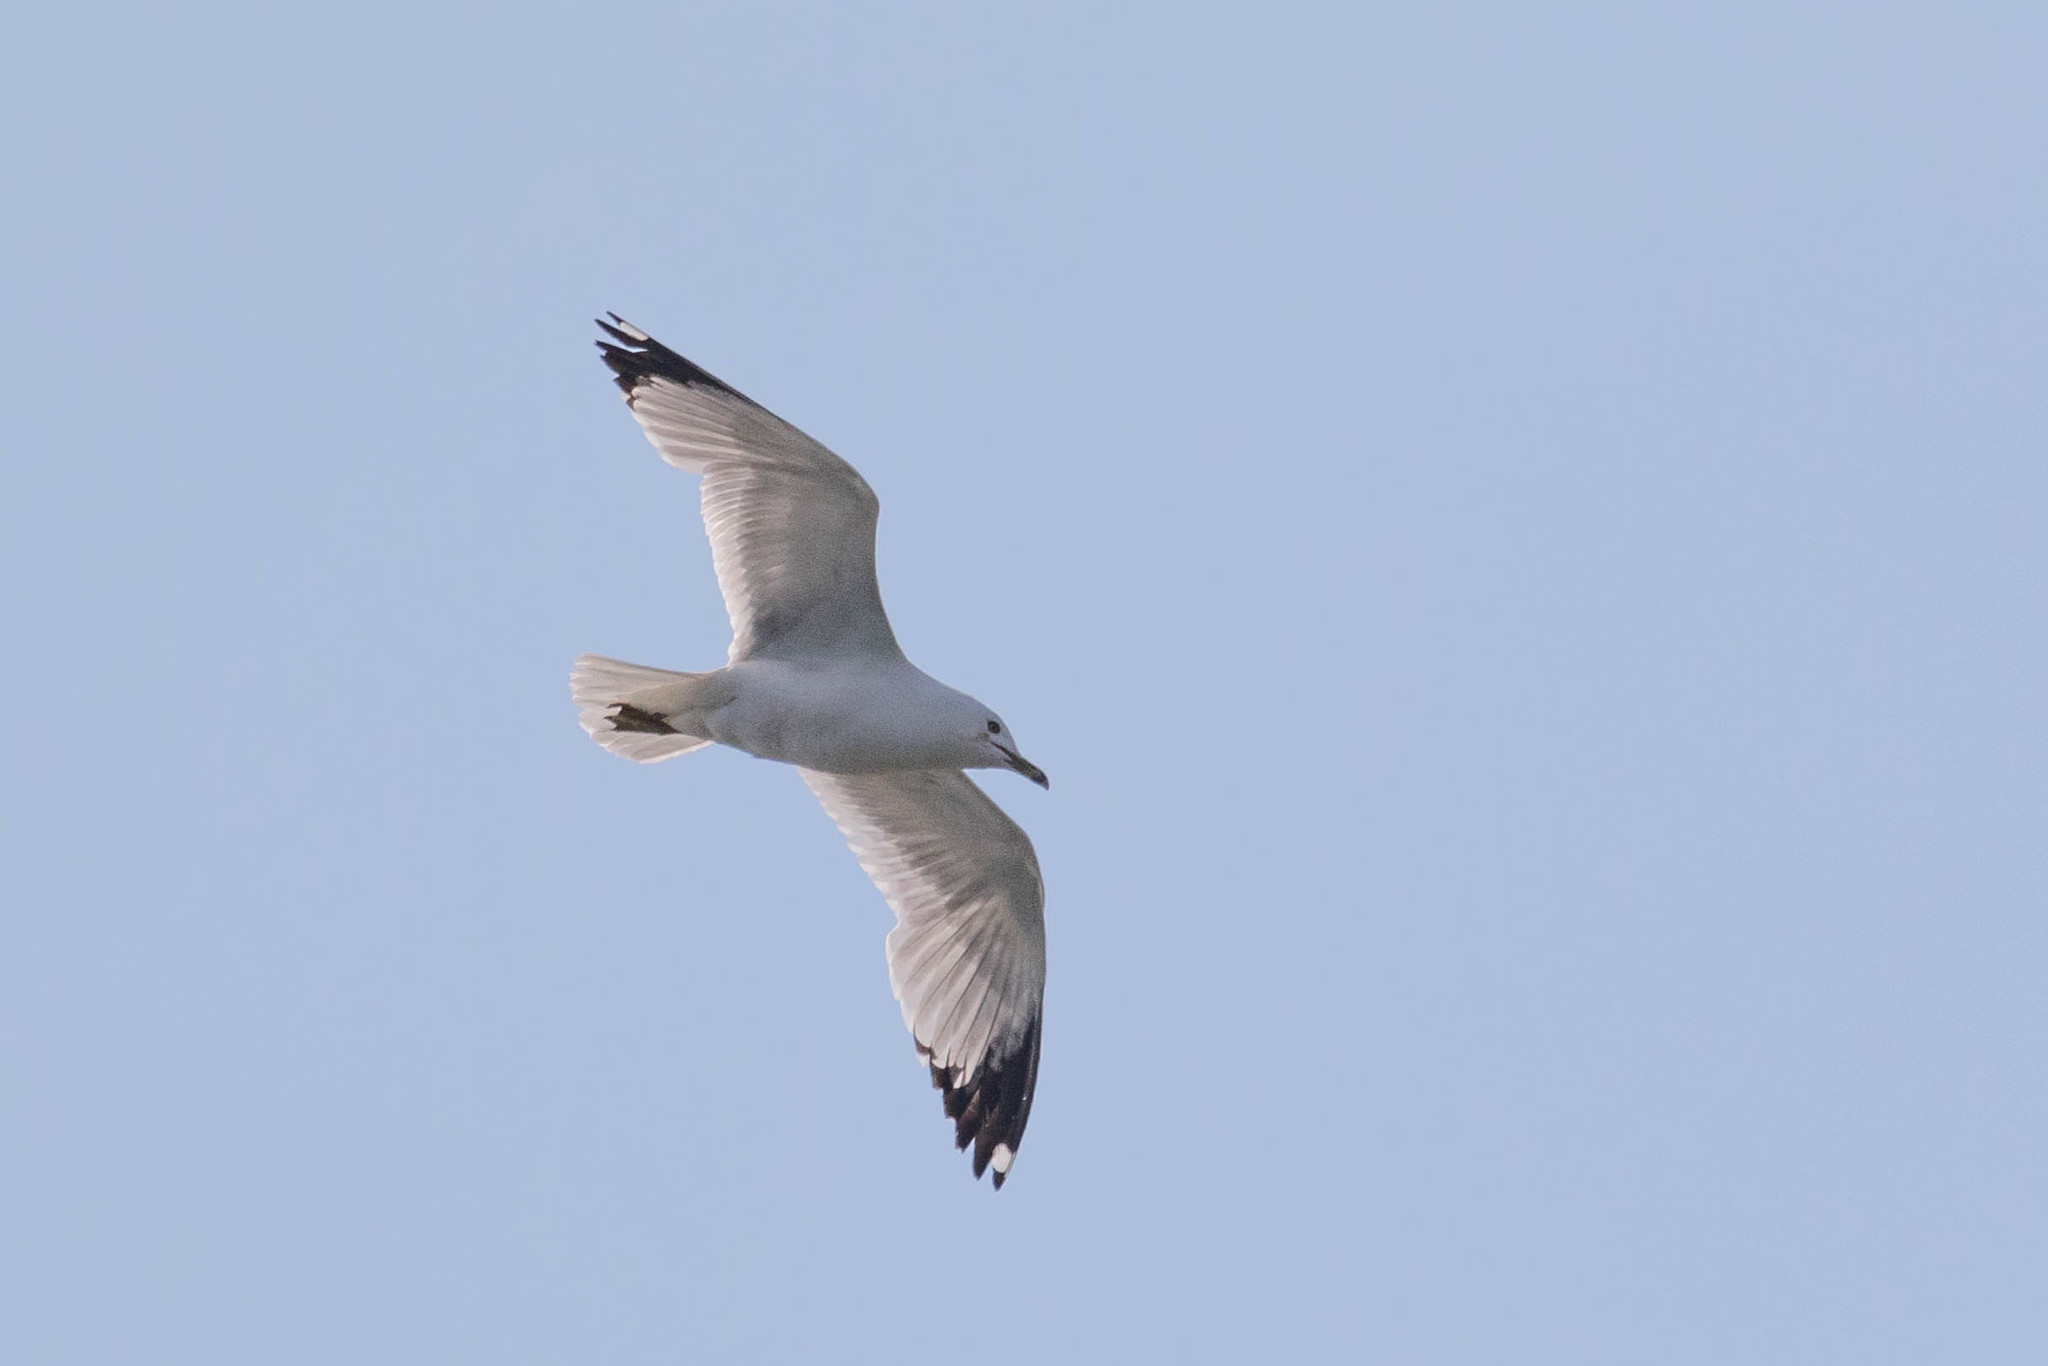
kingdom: Animalia
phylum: Chordata
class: Aves
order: Charadriiformes
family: Laridae
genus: Larus
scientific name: Larus delawarensis
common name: Ring-billed gull
